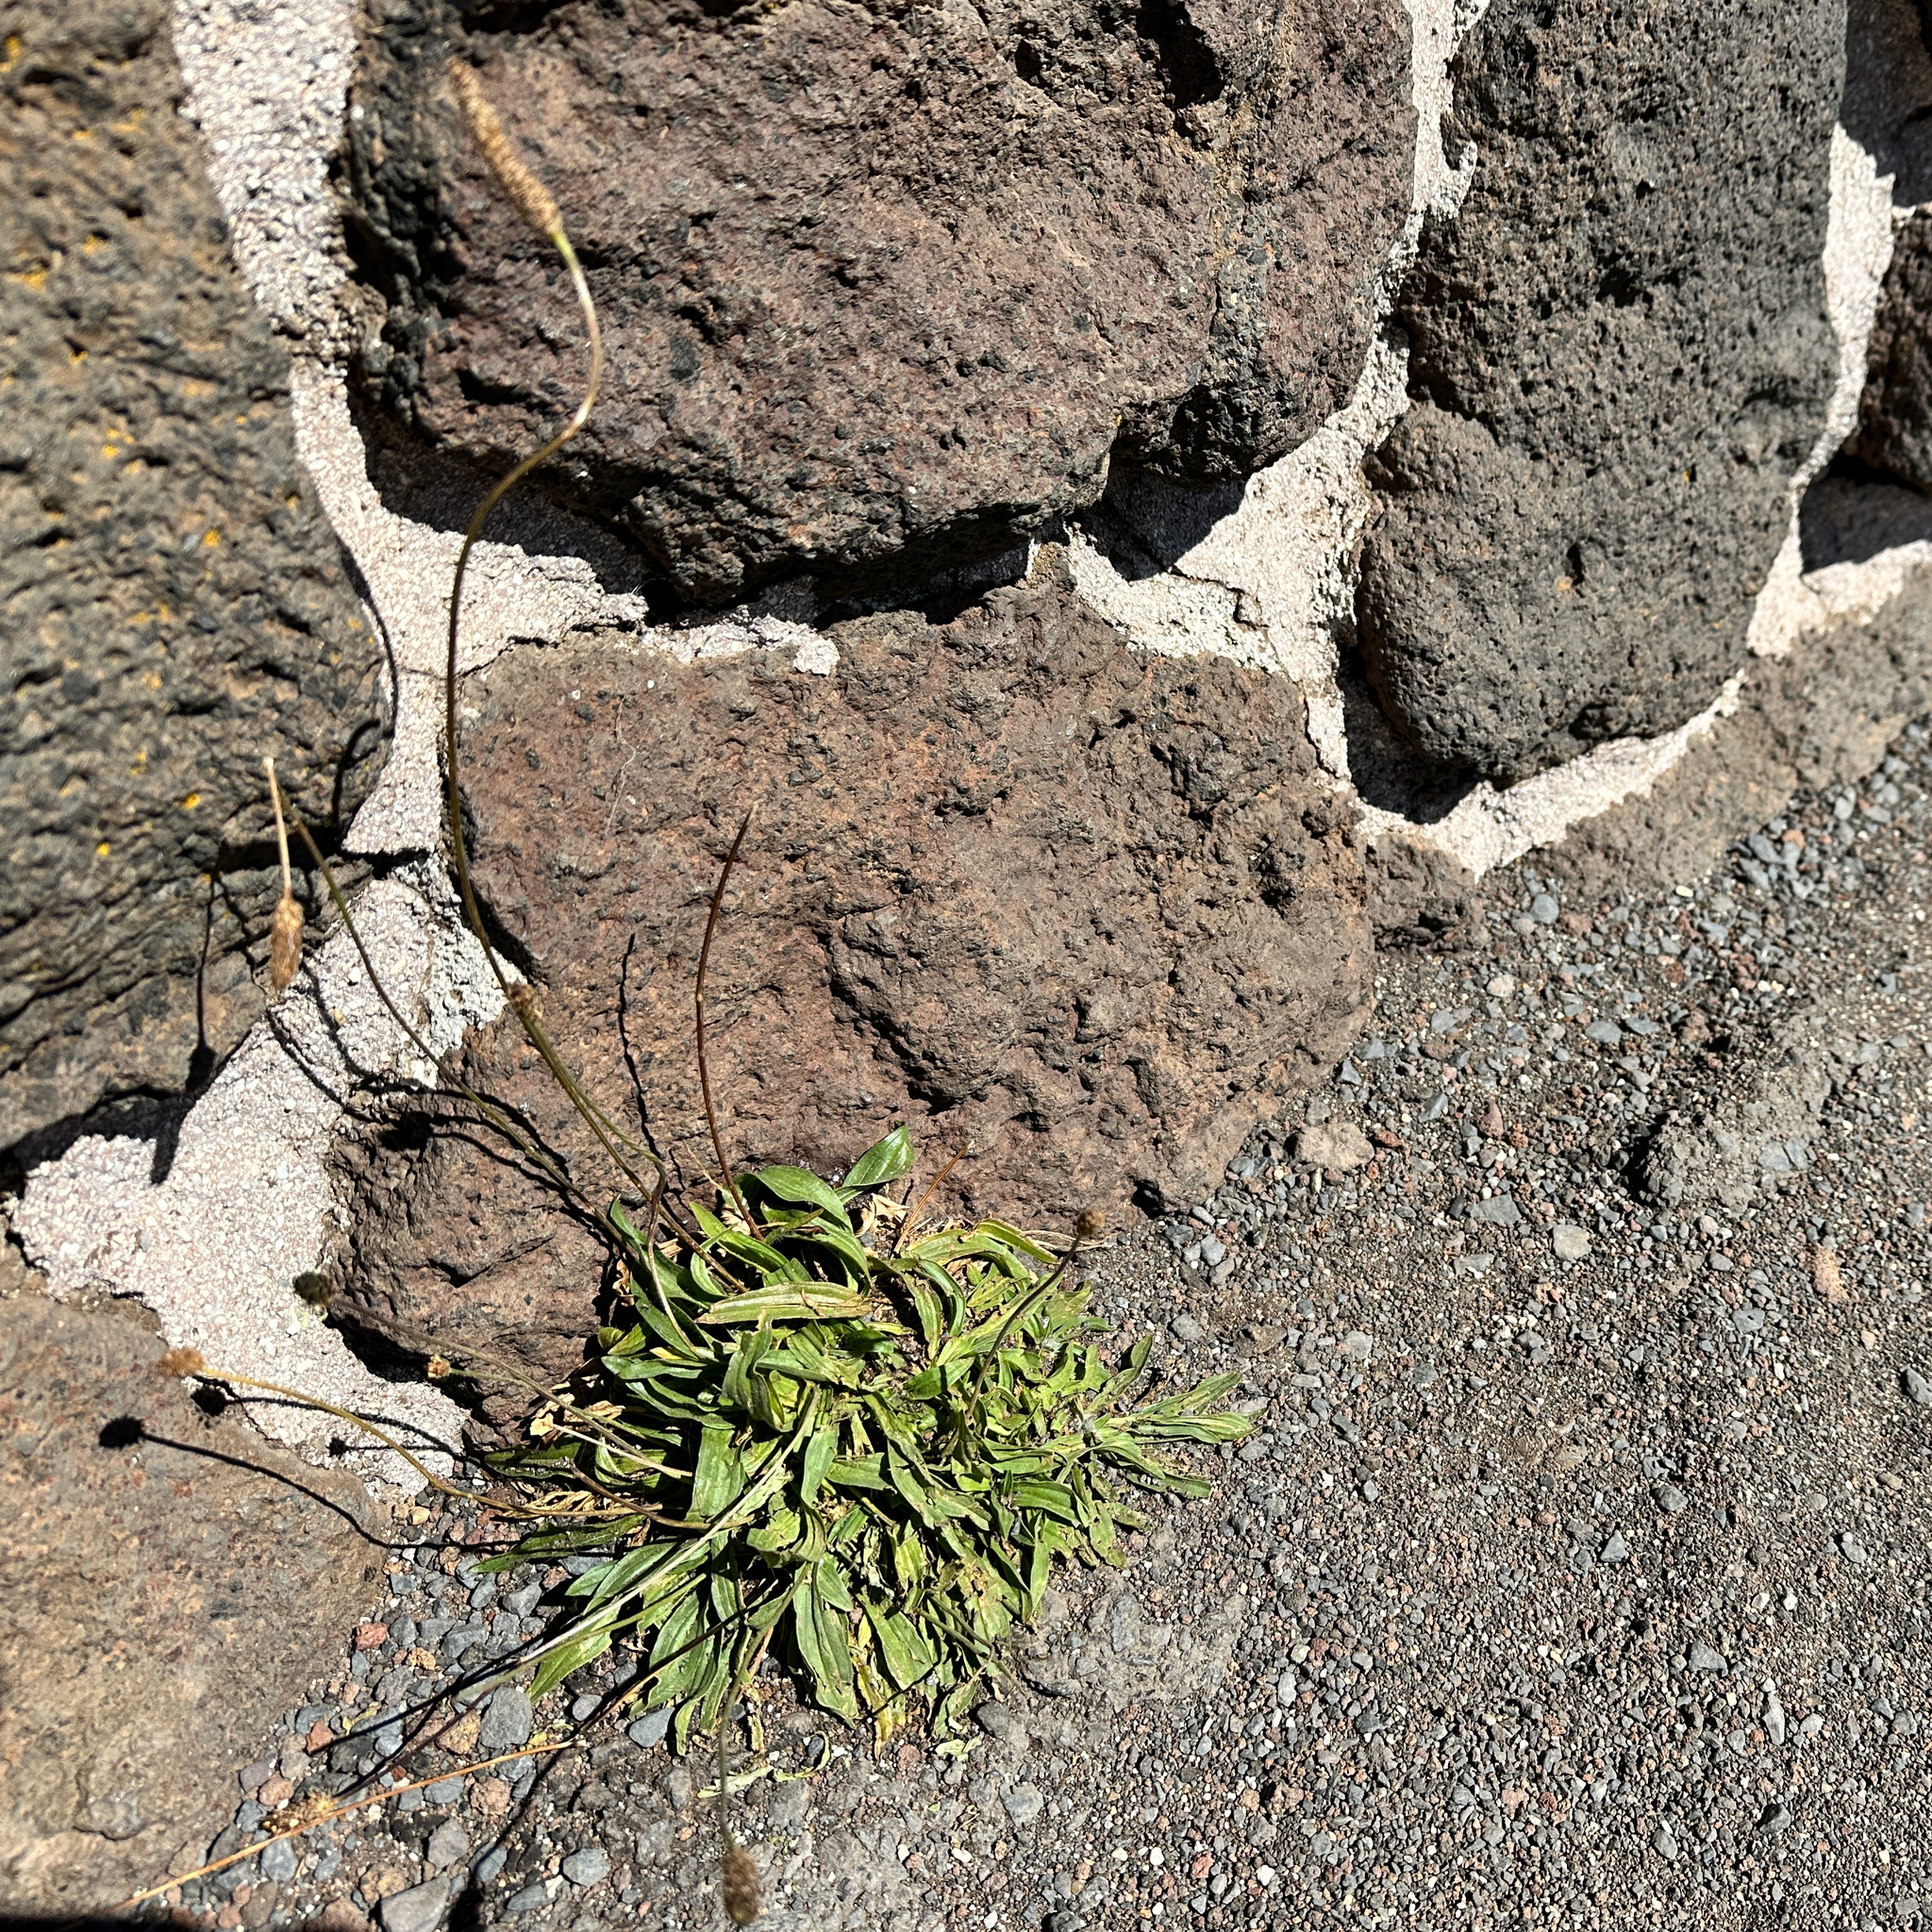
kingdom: Plantae
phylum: Tracheophyta
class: Magnoliopsida
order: Lamiales
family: Plantaginaceae
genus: Plantago
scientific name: Plantago lanceolata
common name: Ribwort plantain
